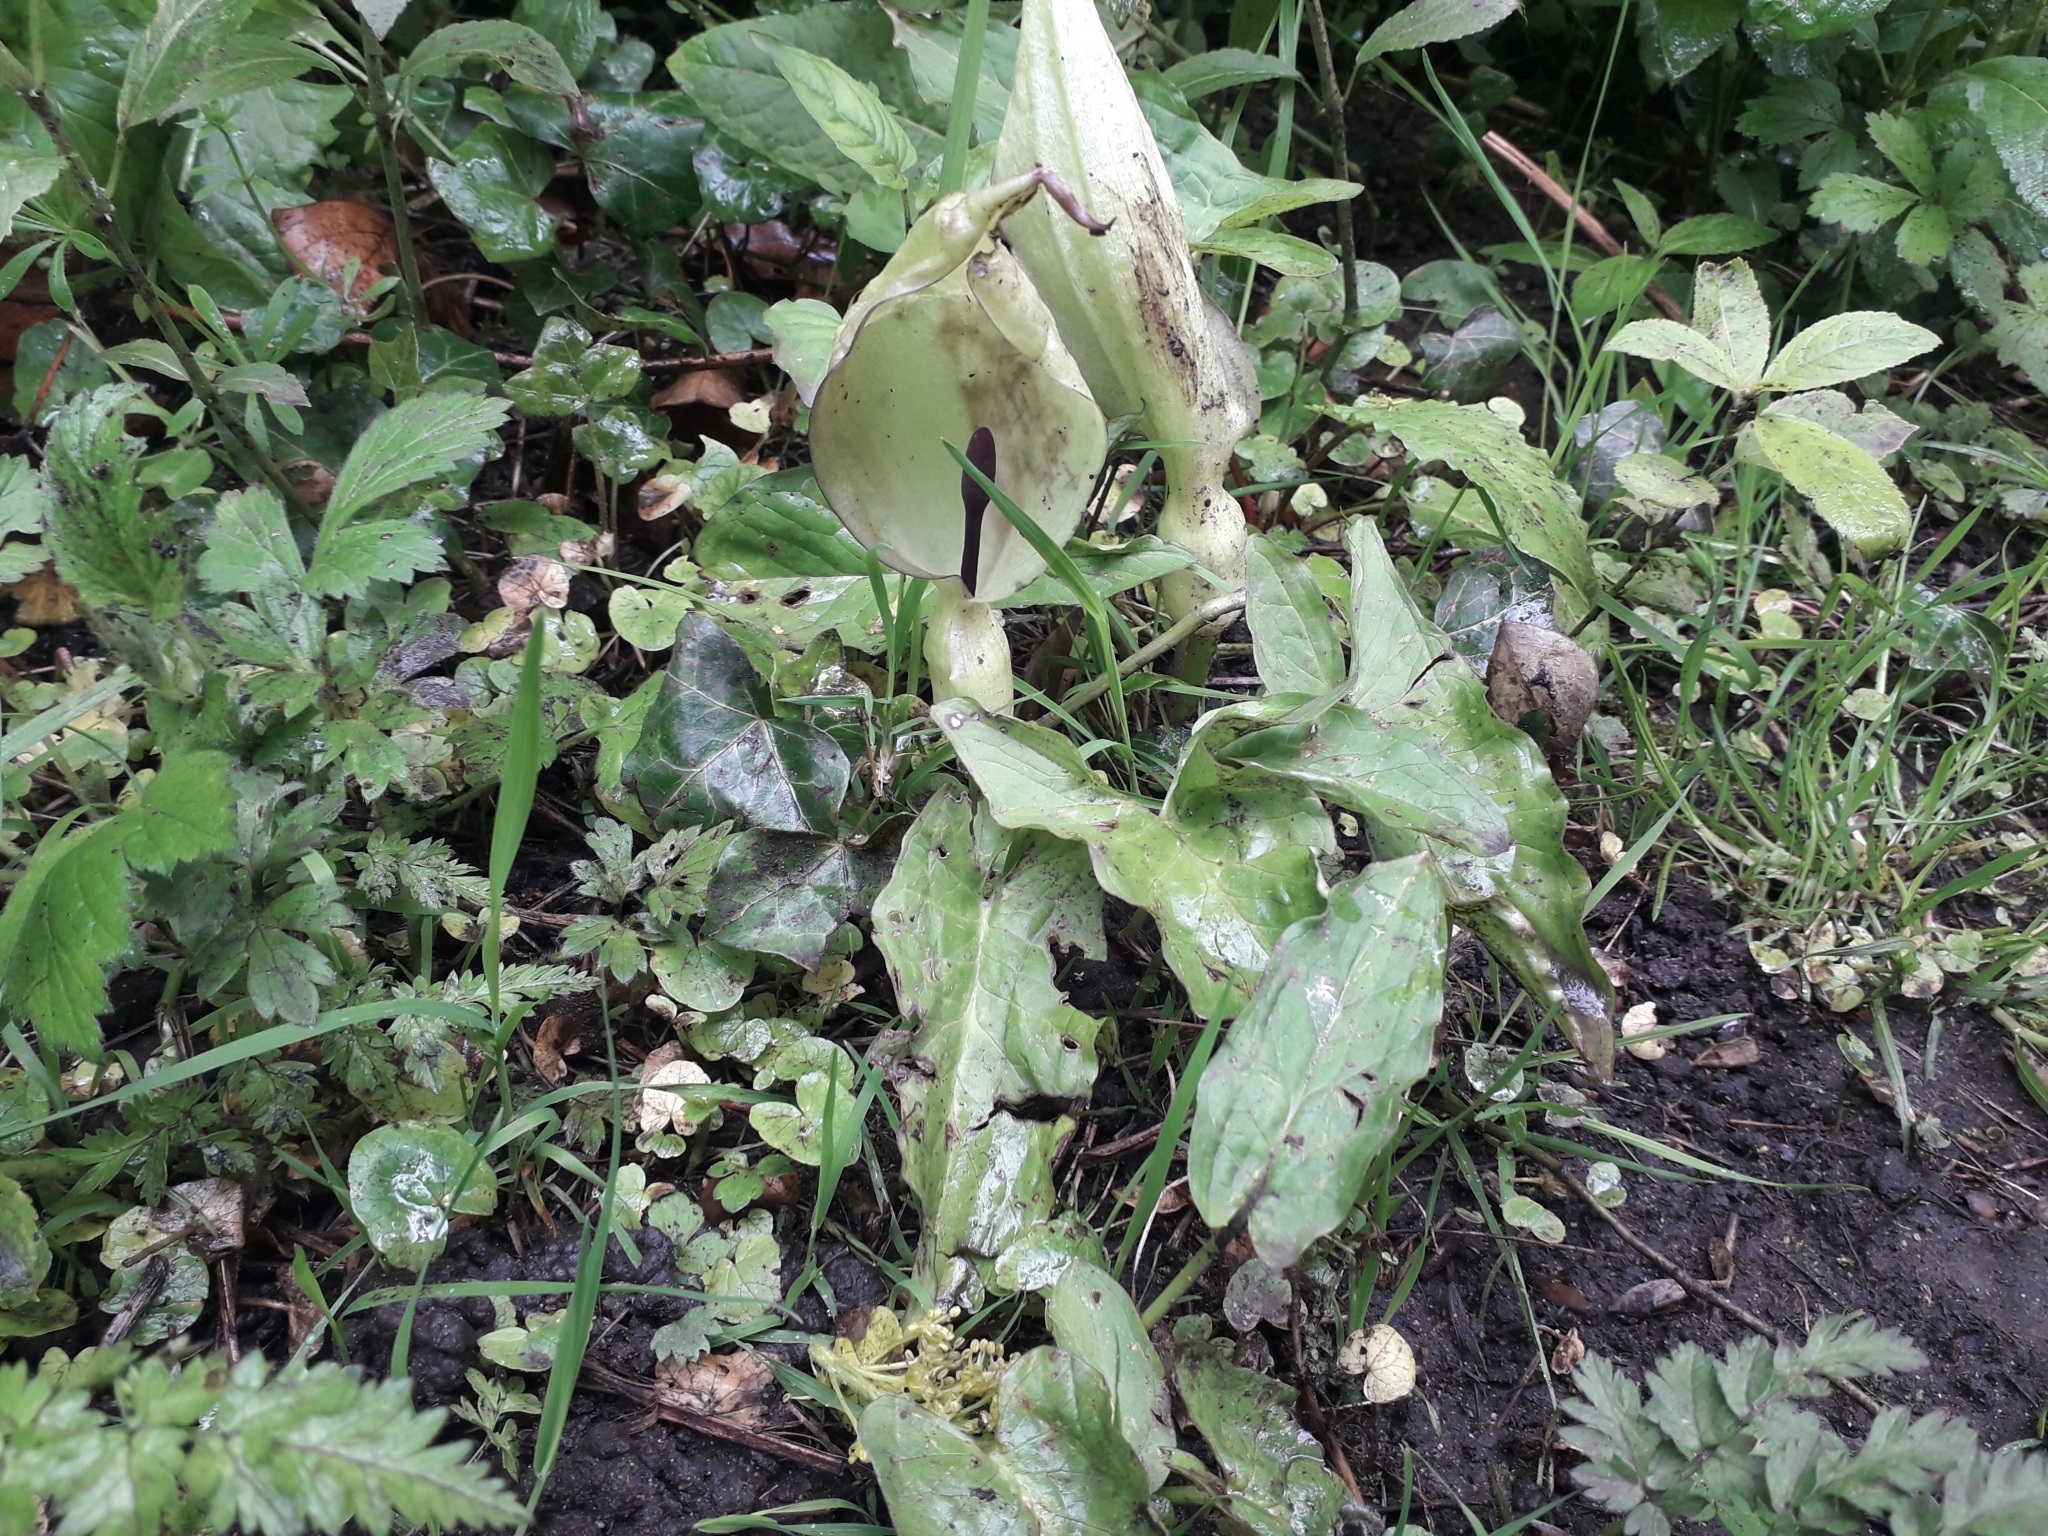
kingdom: Plantae
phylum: Tracheophyta
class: Liliopsida
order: Alismatales
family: Araceae
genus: Arum
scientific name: Arum maculatum
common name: Lords-and-ladies
